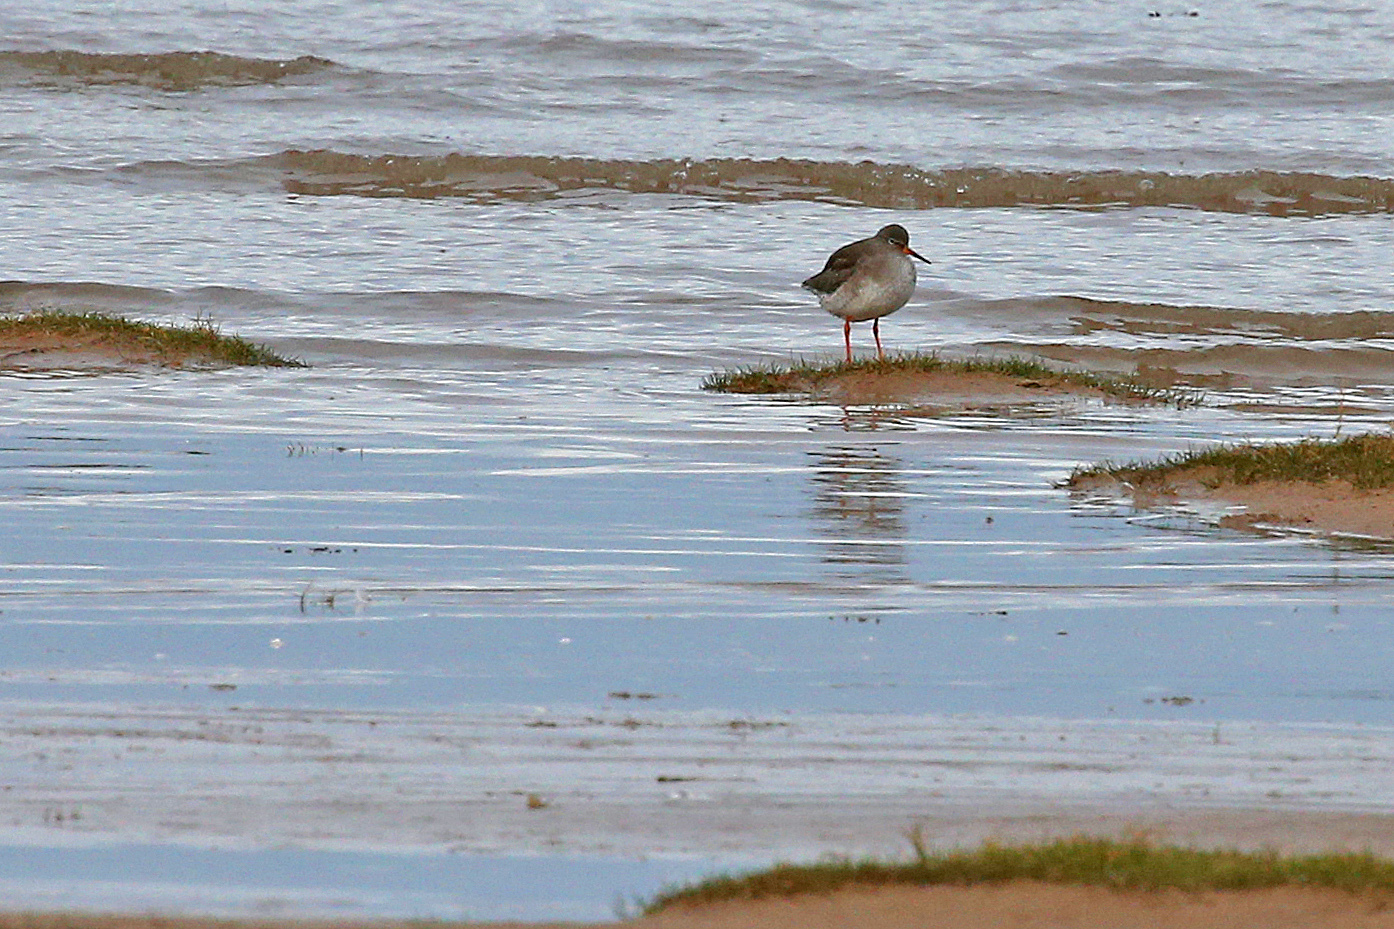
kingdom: Animalia
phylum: Chordata
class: Aves
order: Charadriiformes
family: Scolopacidae
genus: Tringa
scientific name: Tringa totanus
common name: Common redshank
